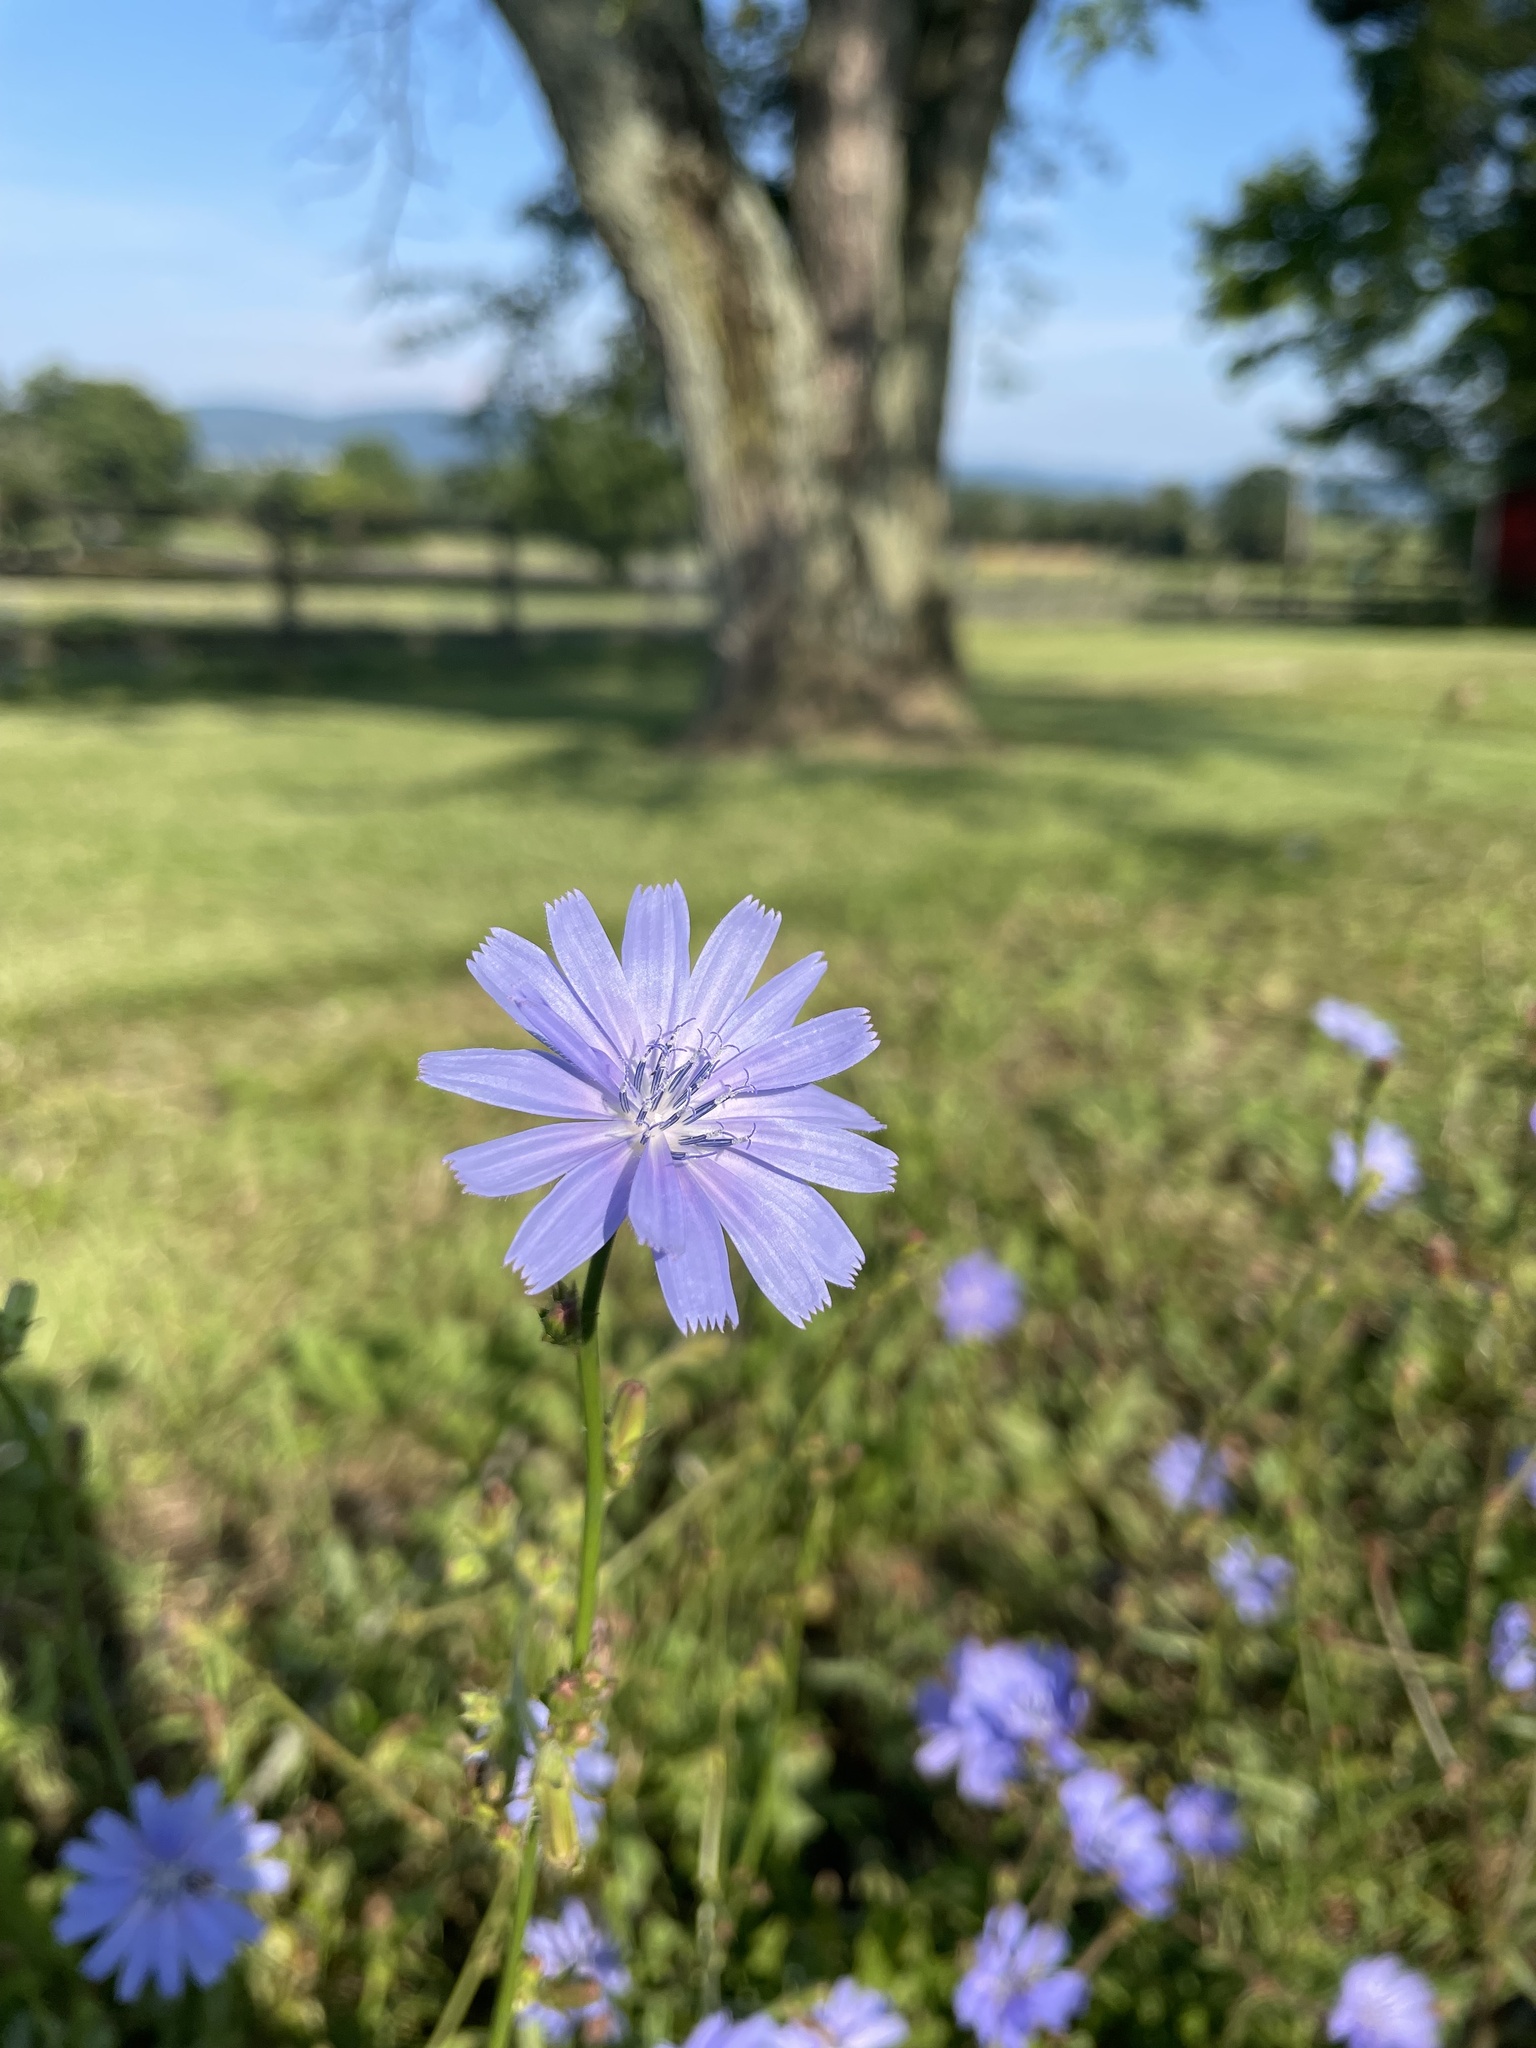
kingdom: Plantae
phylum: Tracheophyta
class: Magnoliopsida
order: Asterales
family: Asteraceae
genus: Cichorium
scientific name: Cichorium intybus
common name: Chicory
